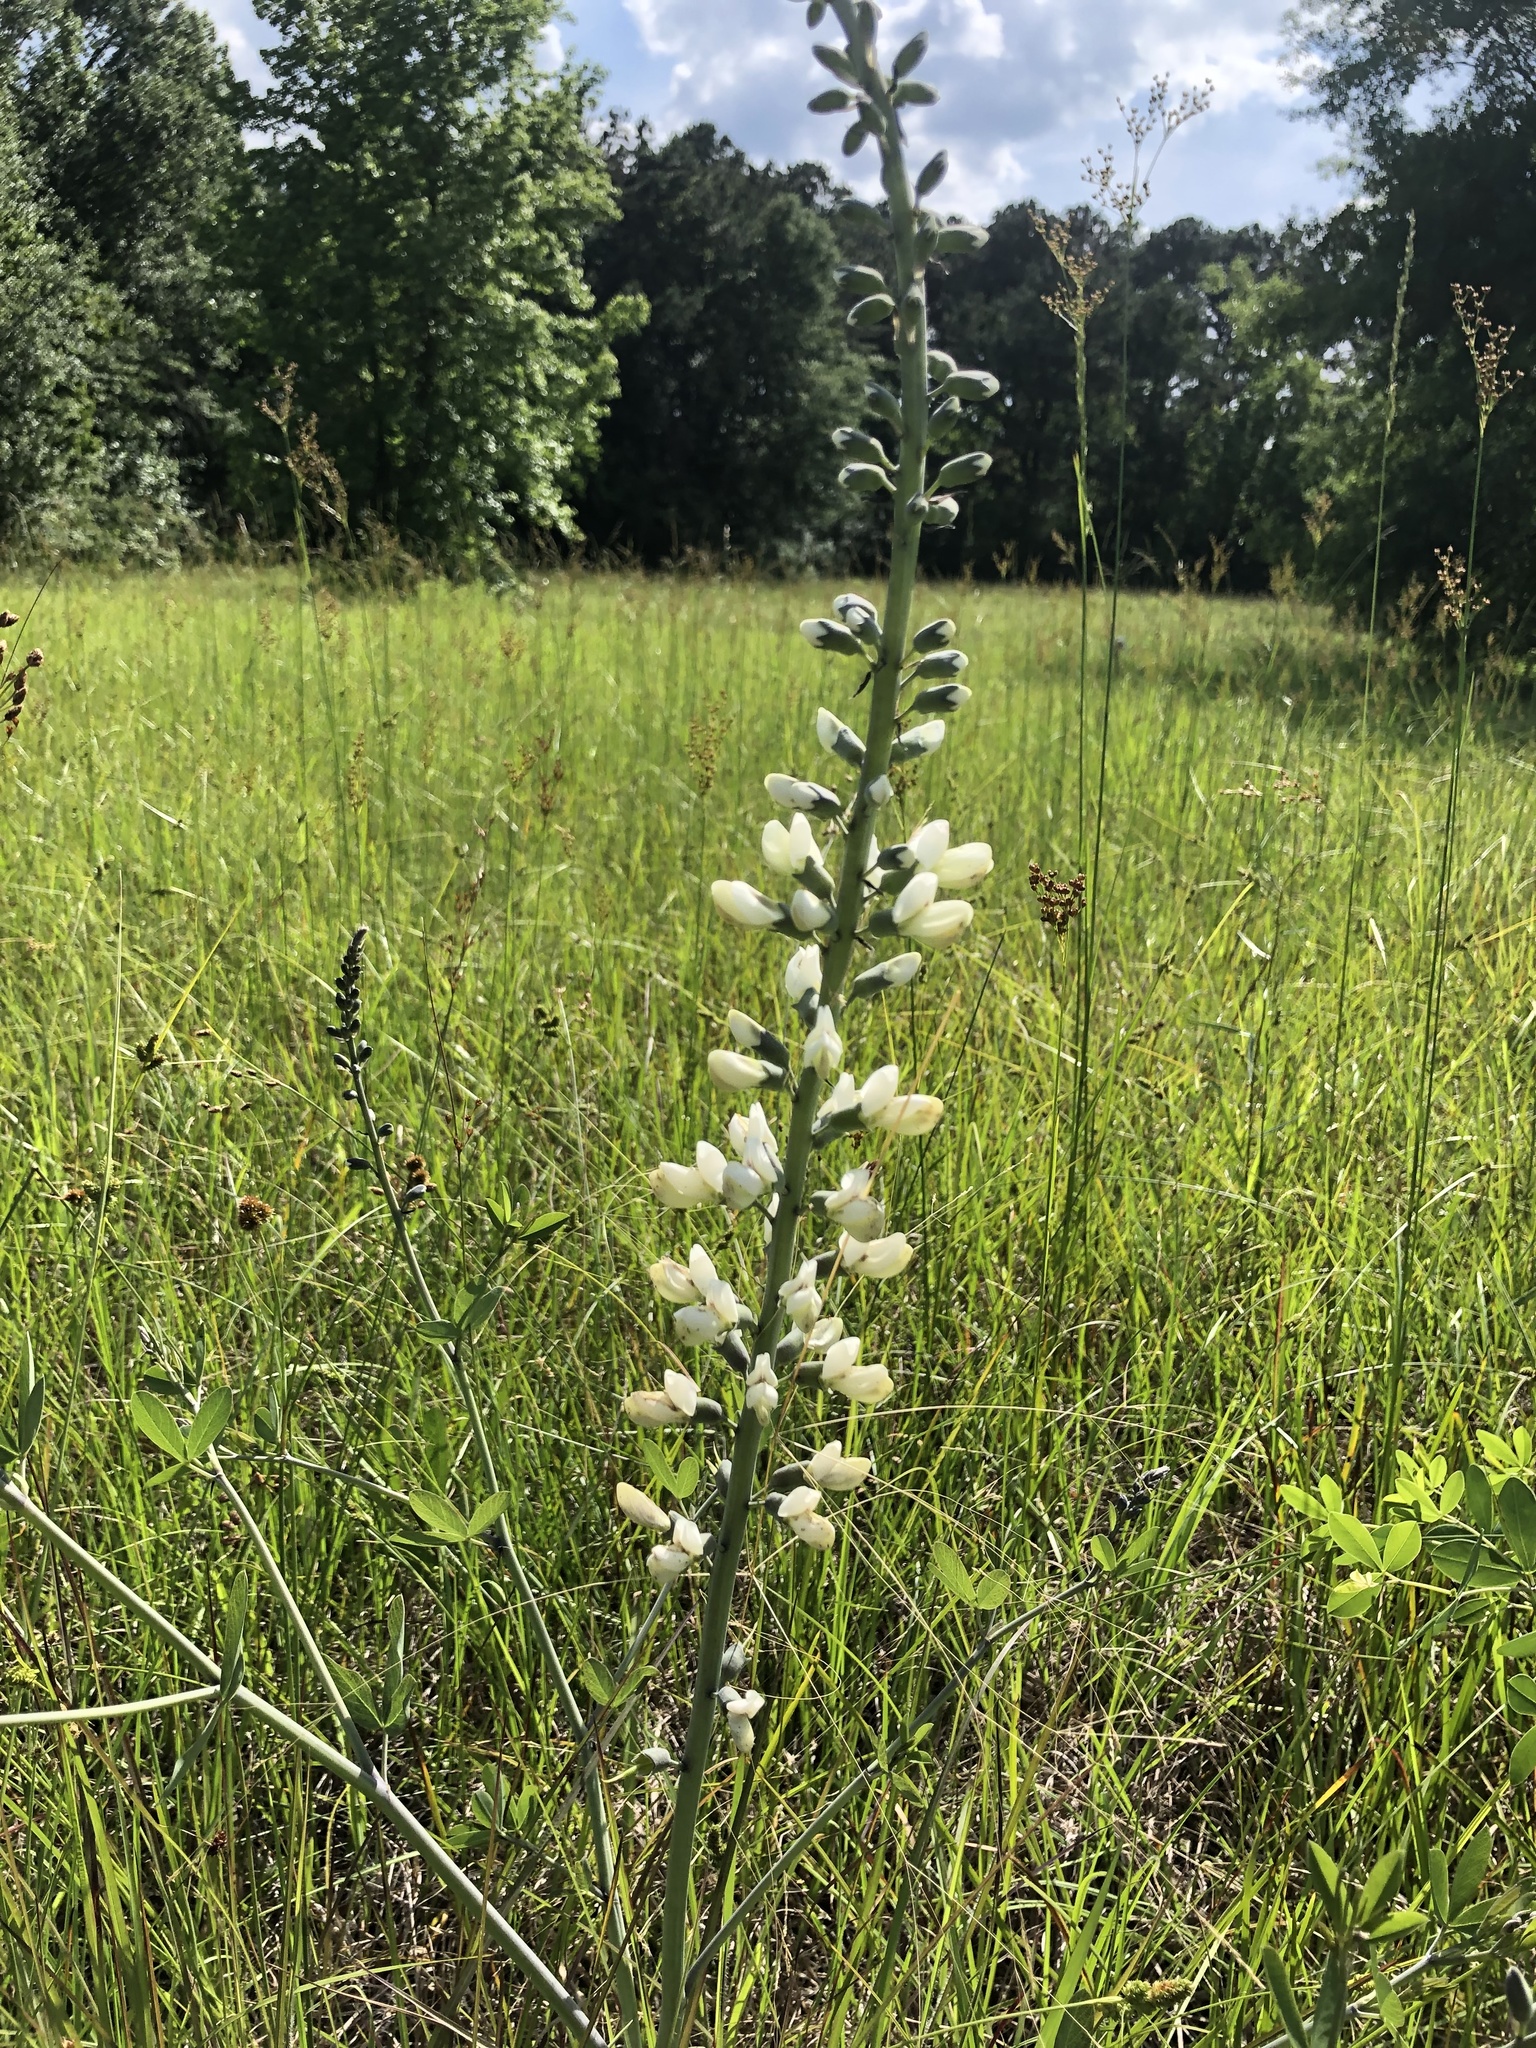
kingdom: Plantae
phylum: Tracheophyta
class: Magnoliopsida
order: Fabales
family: Fabaceae
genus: Baptisia
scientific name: Baptisia alba
